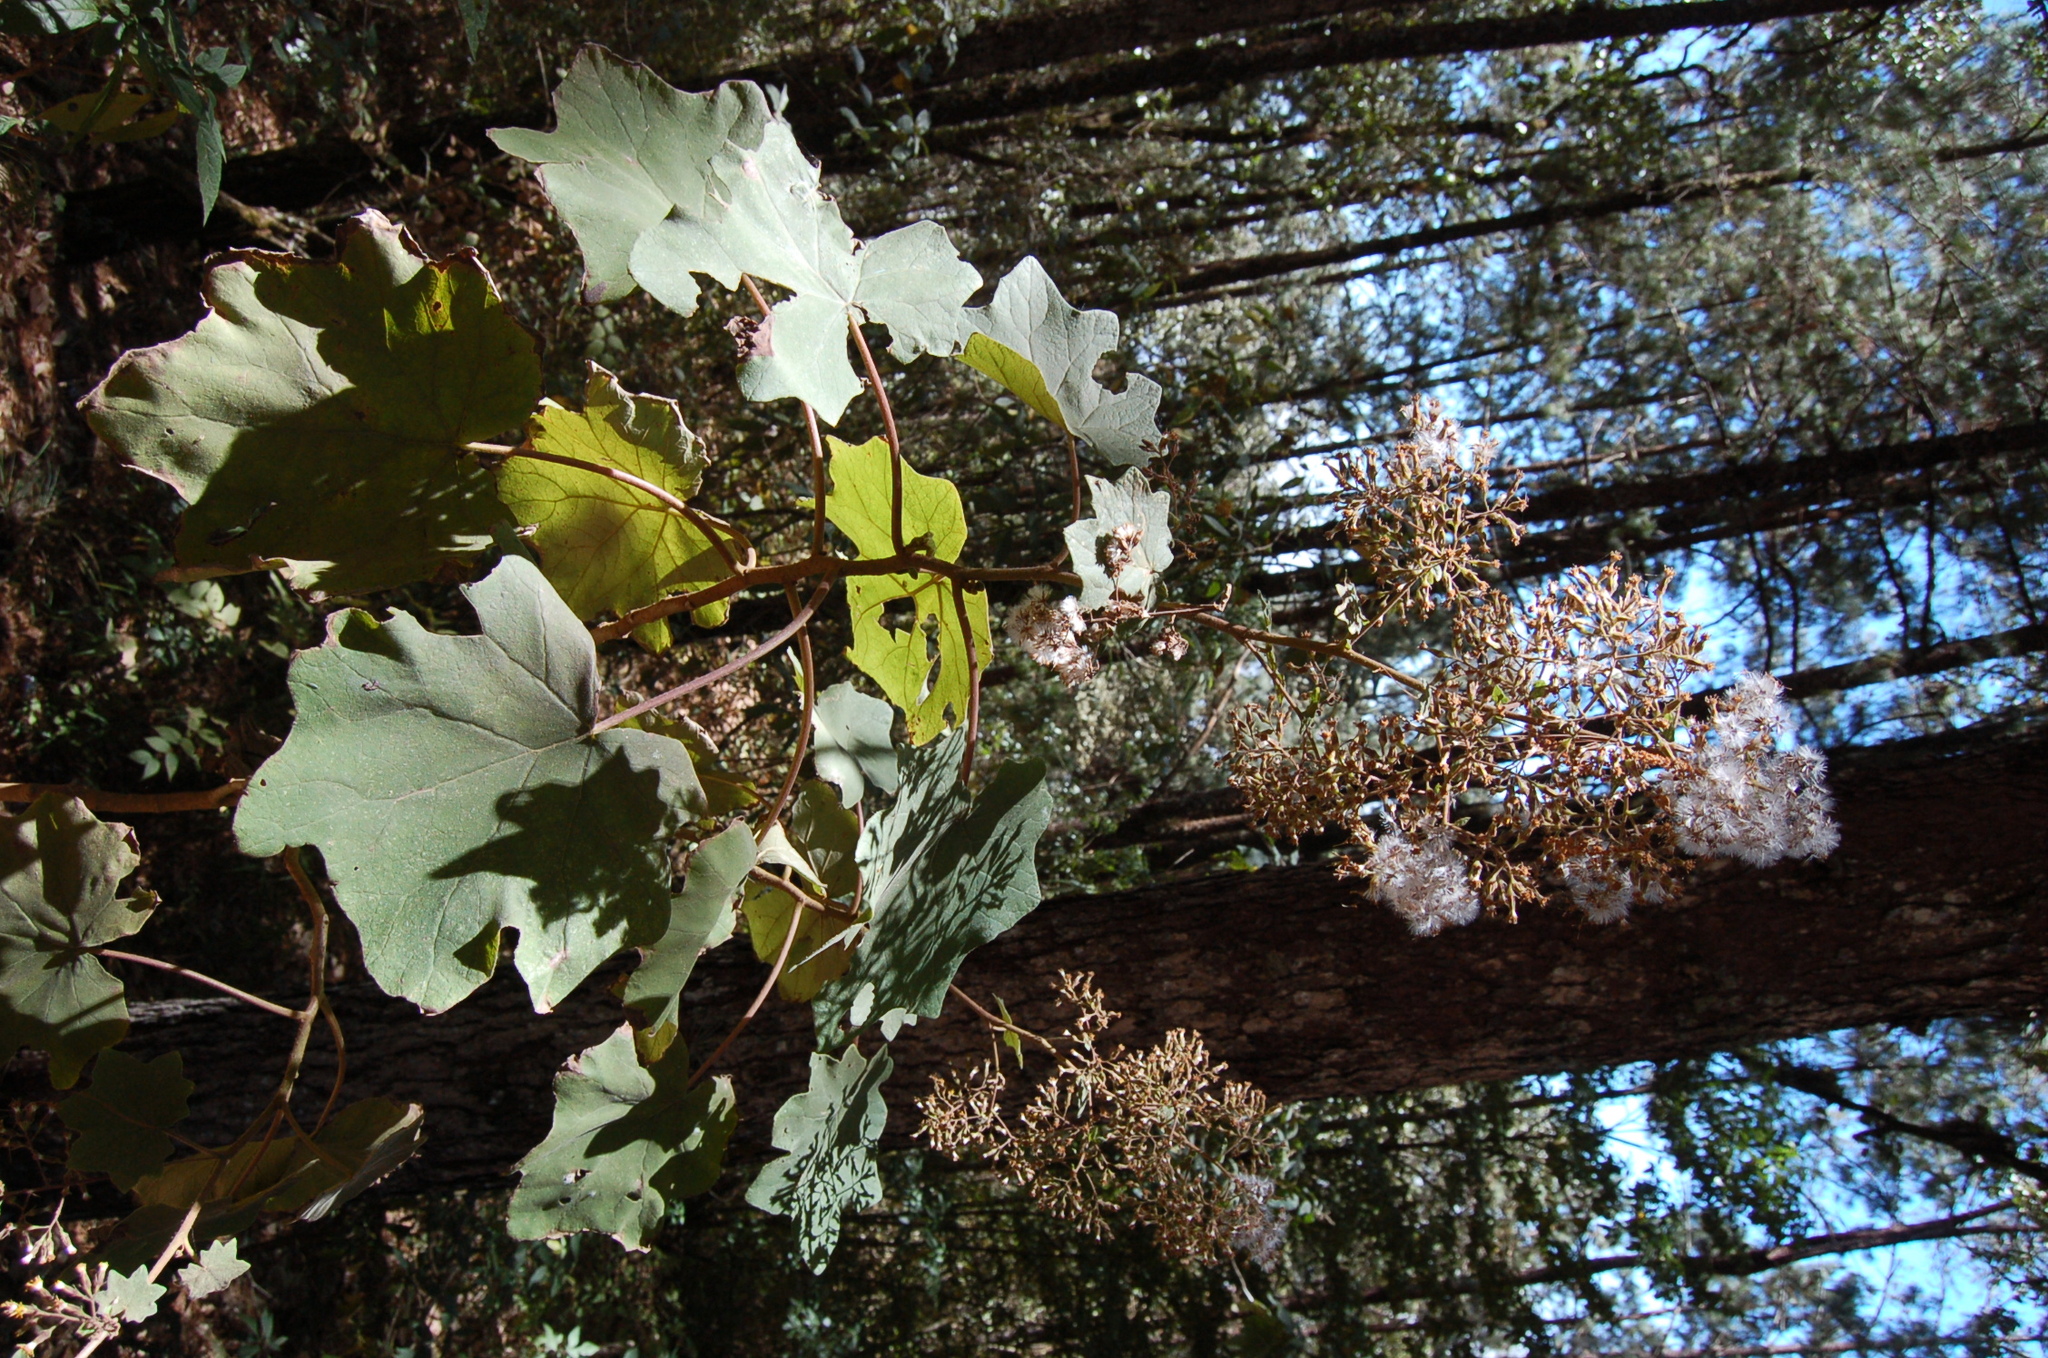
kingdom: Plantae
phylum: Tracheophyta
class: Magnoliopsida
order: Asterales
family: Asteraceae
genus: Roldana
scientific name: Roldana cristobalensis
